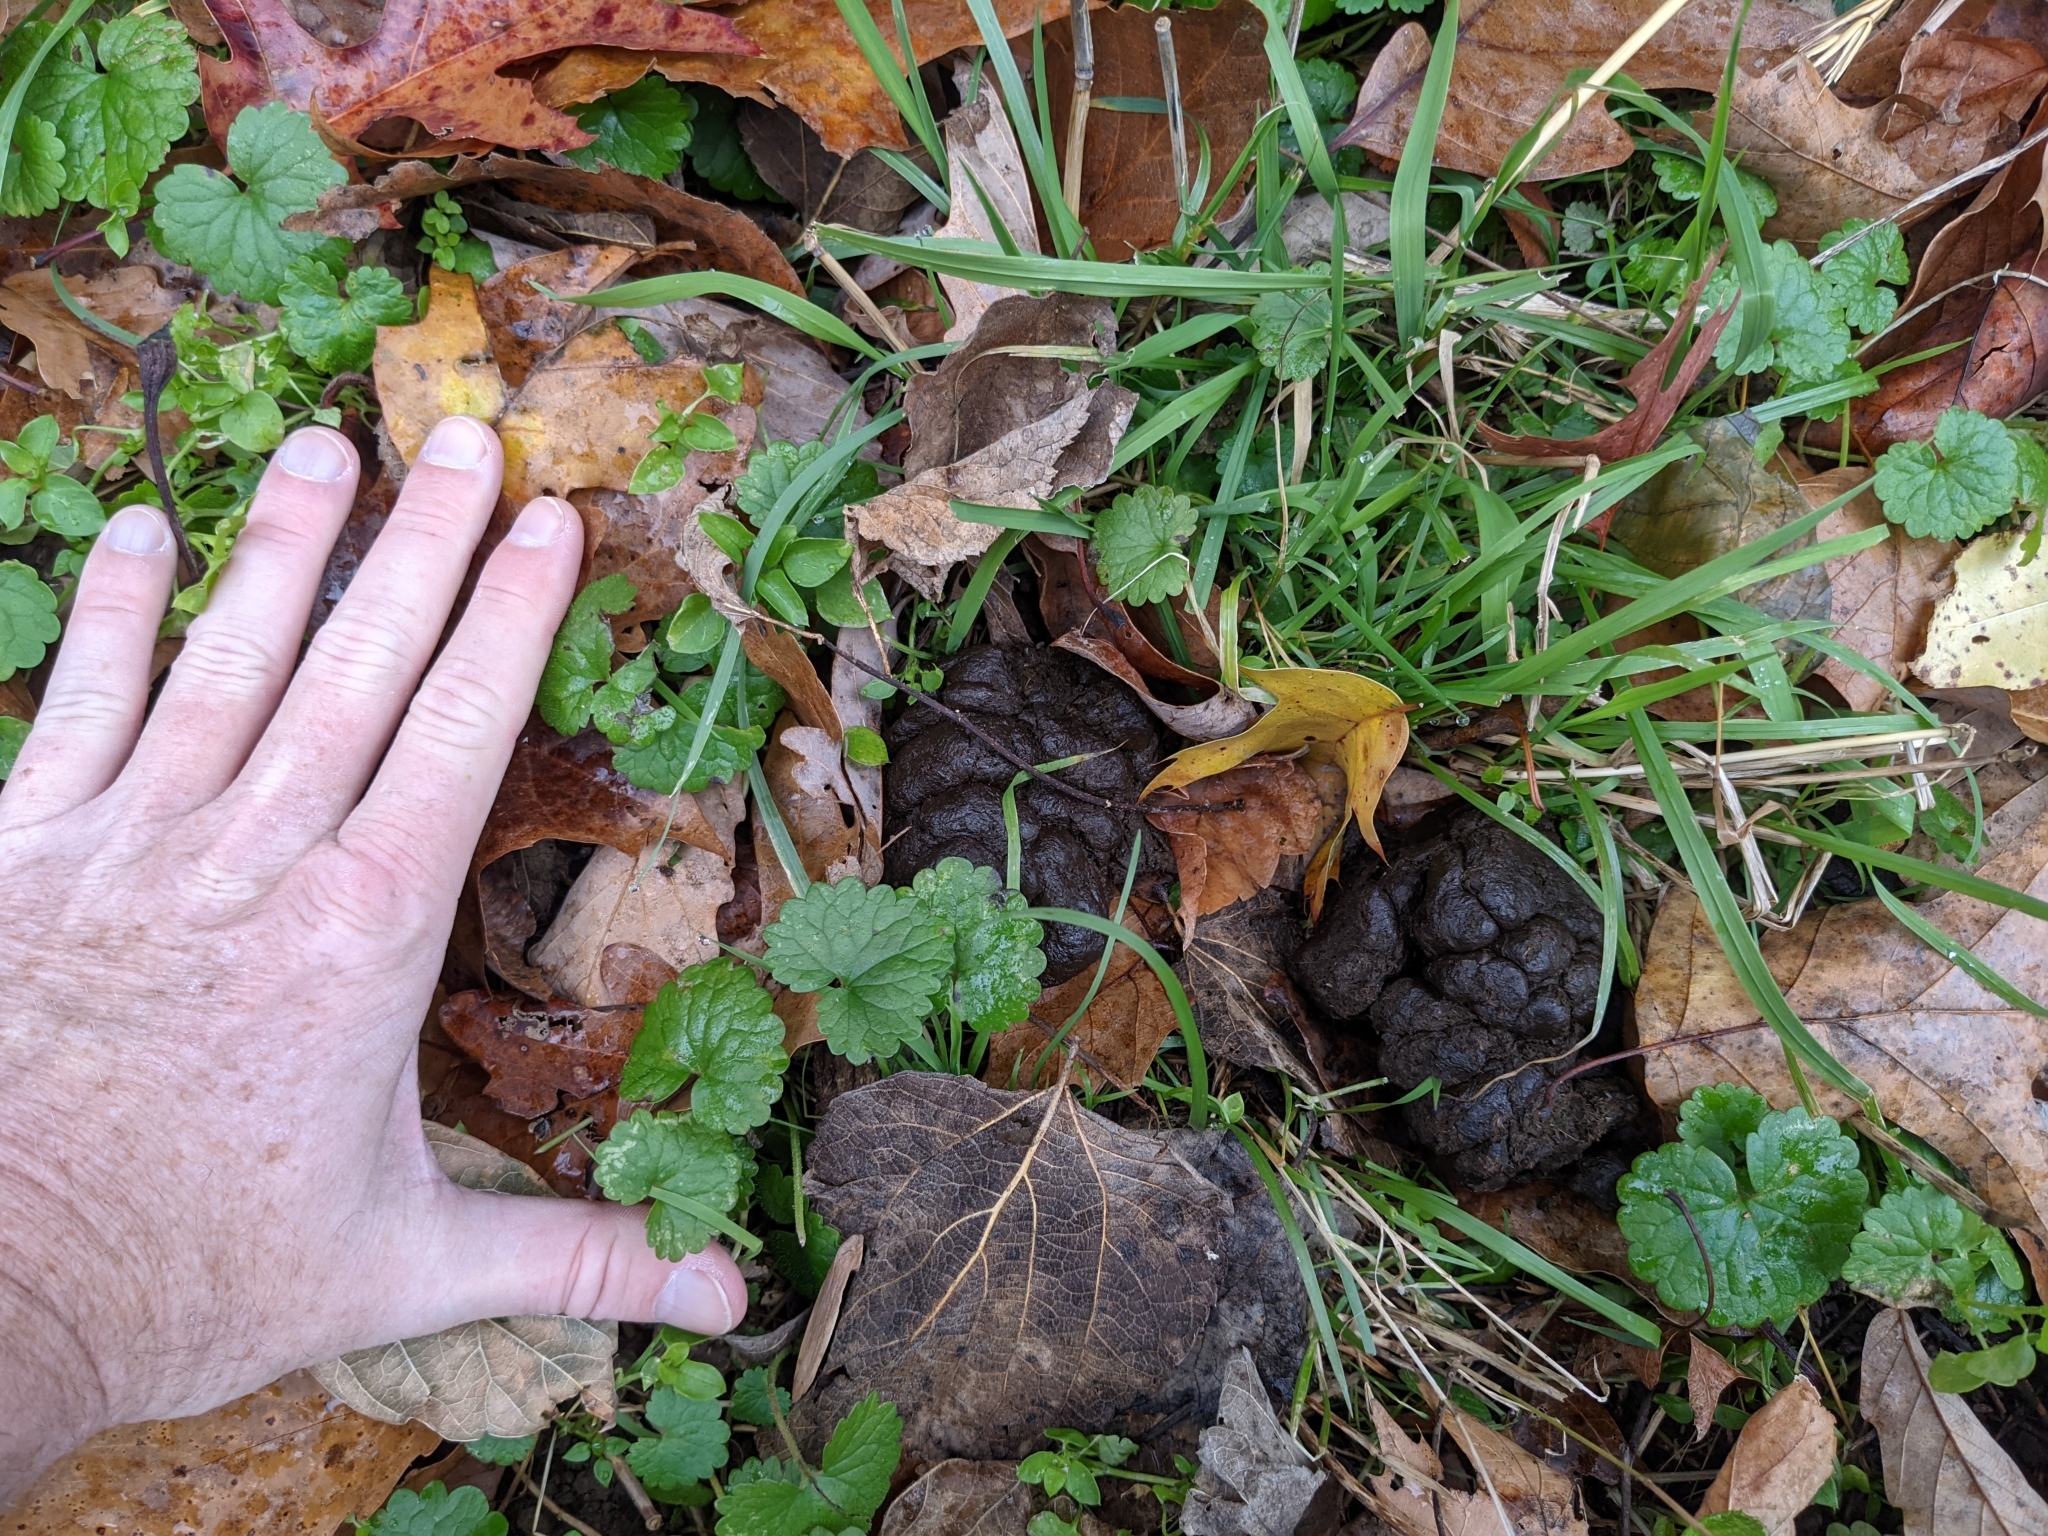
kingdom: Animalia
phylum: Chordata
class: Mammalia
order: Artiodactyla
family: Cervidae
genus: Odocoileus
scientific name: Odocoileus virginianus
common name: White-tailed deer
